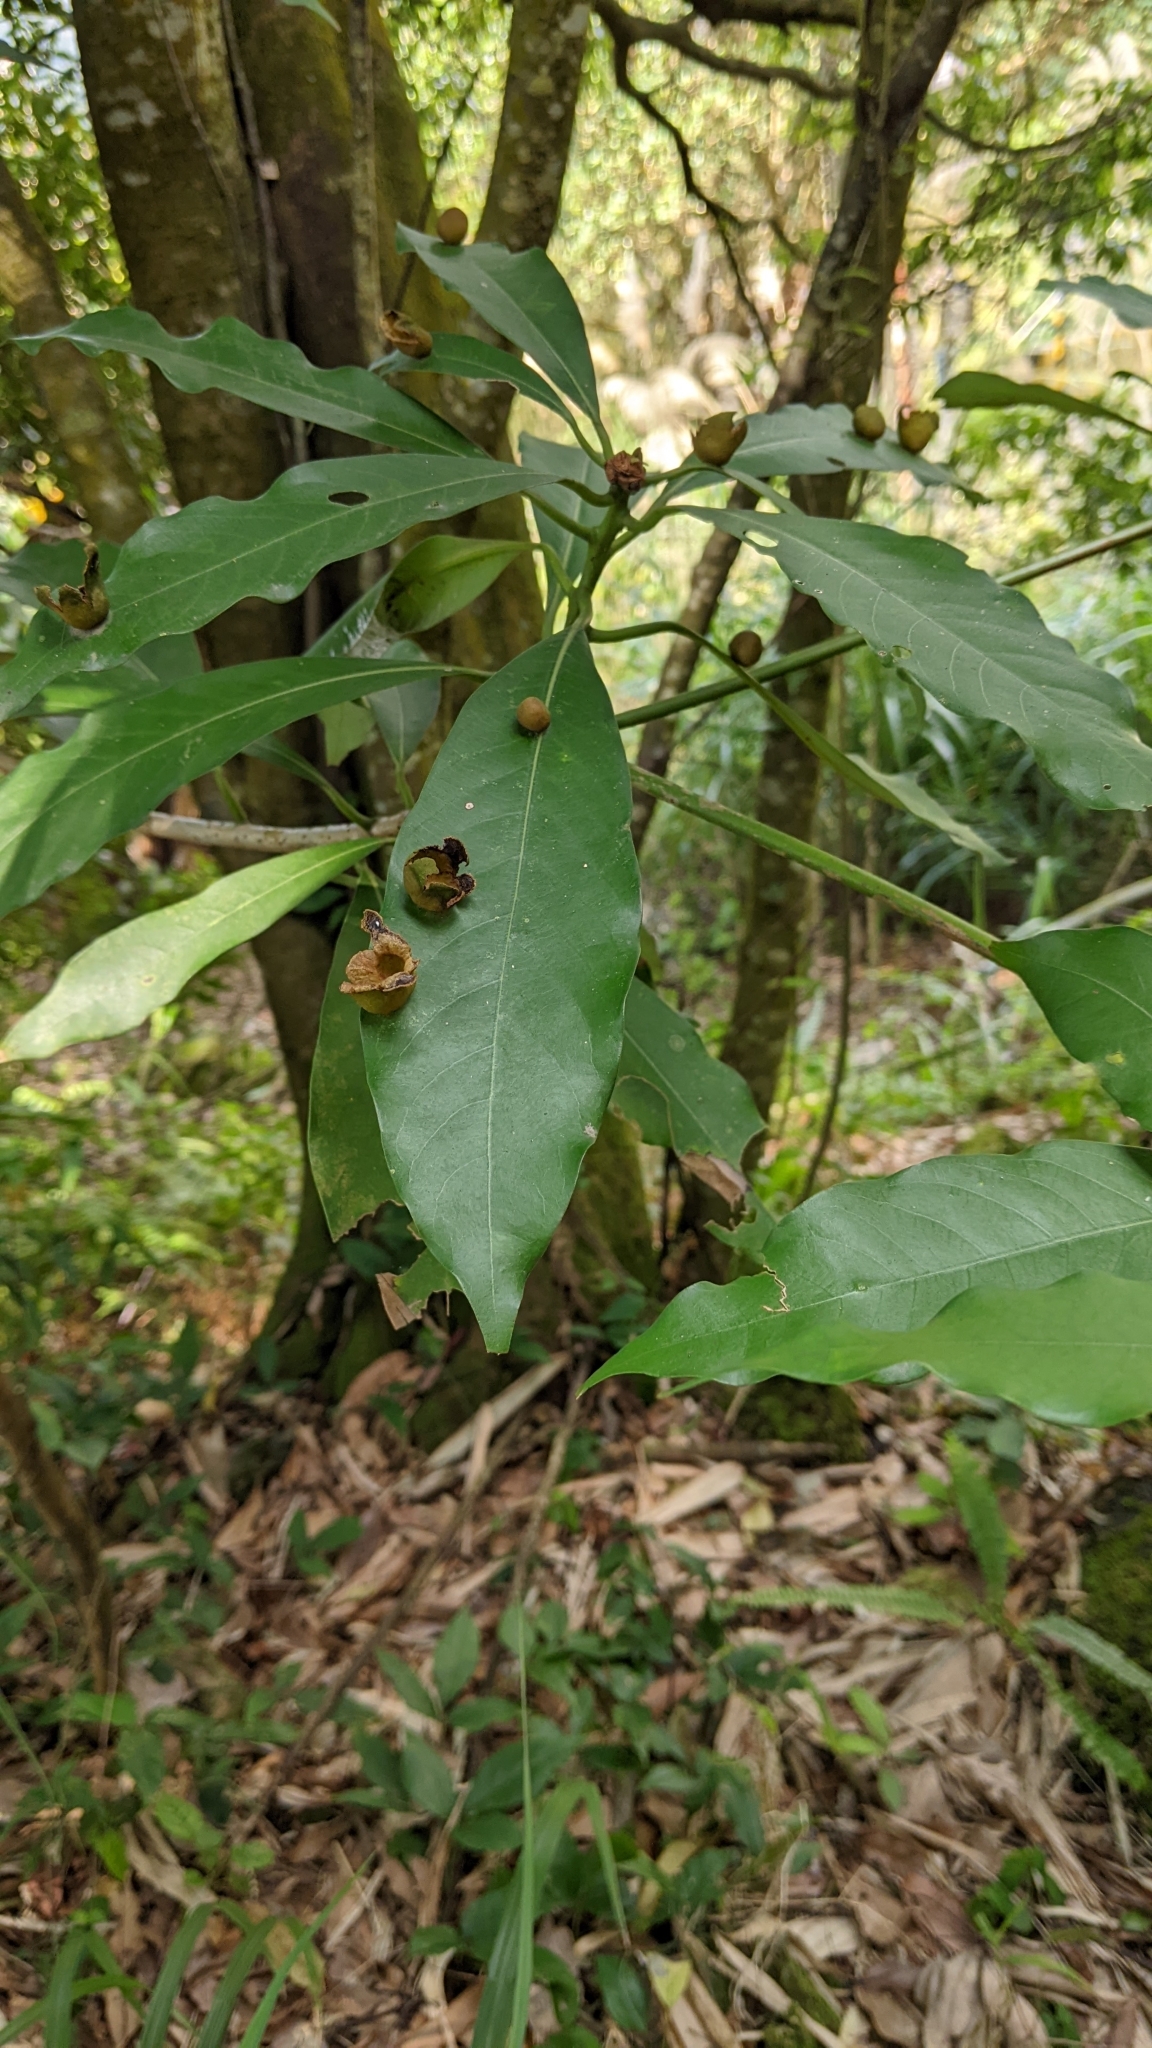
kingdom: Plantae
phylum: Tracheophyta
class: Magnoliopsida
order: Laurales
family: Lauraceae
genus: Machilus
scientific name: Machilus japonica
